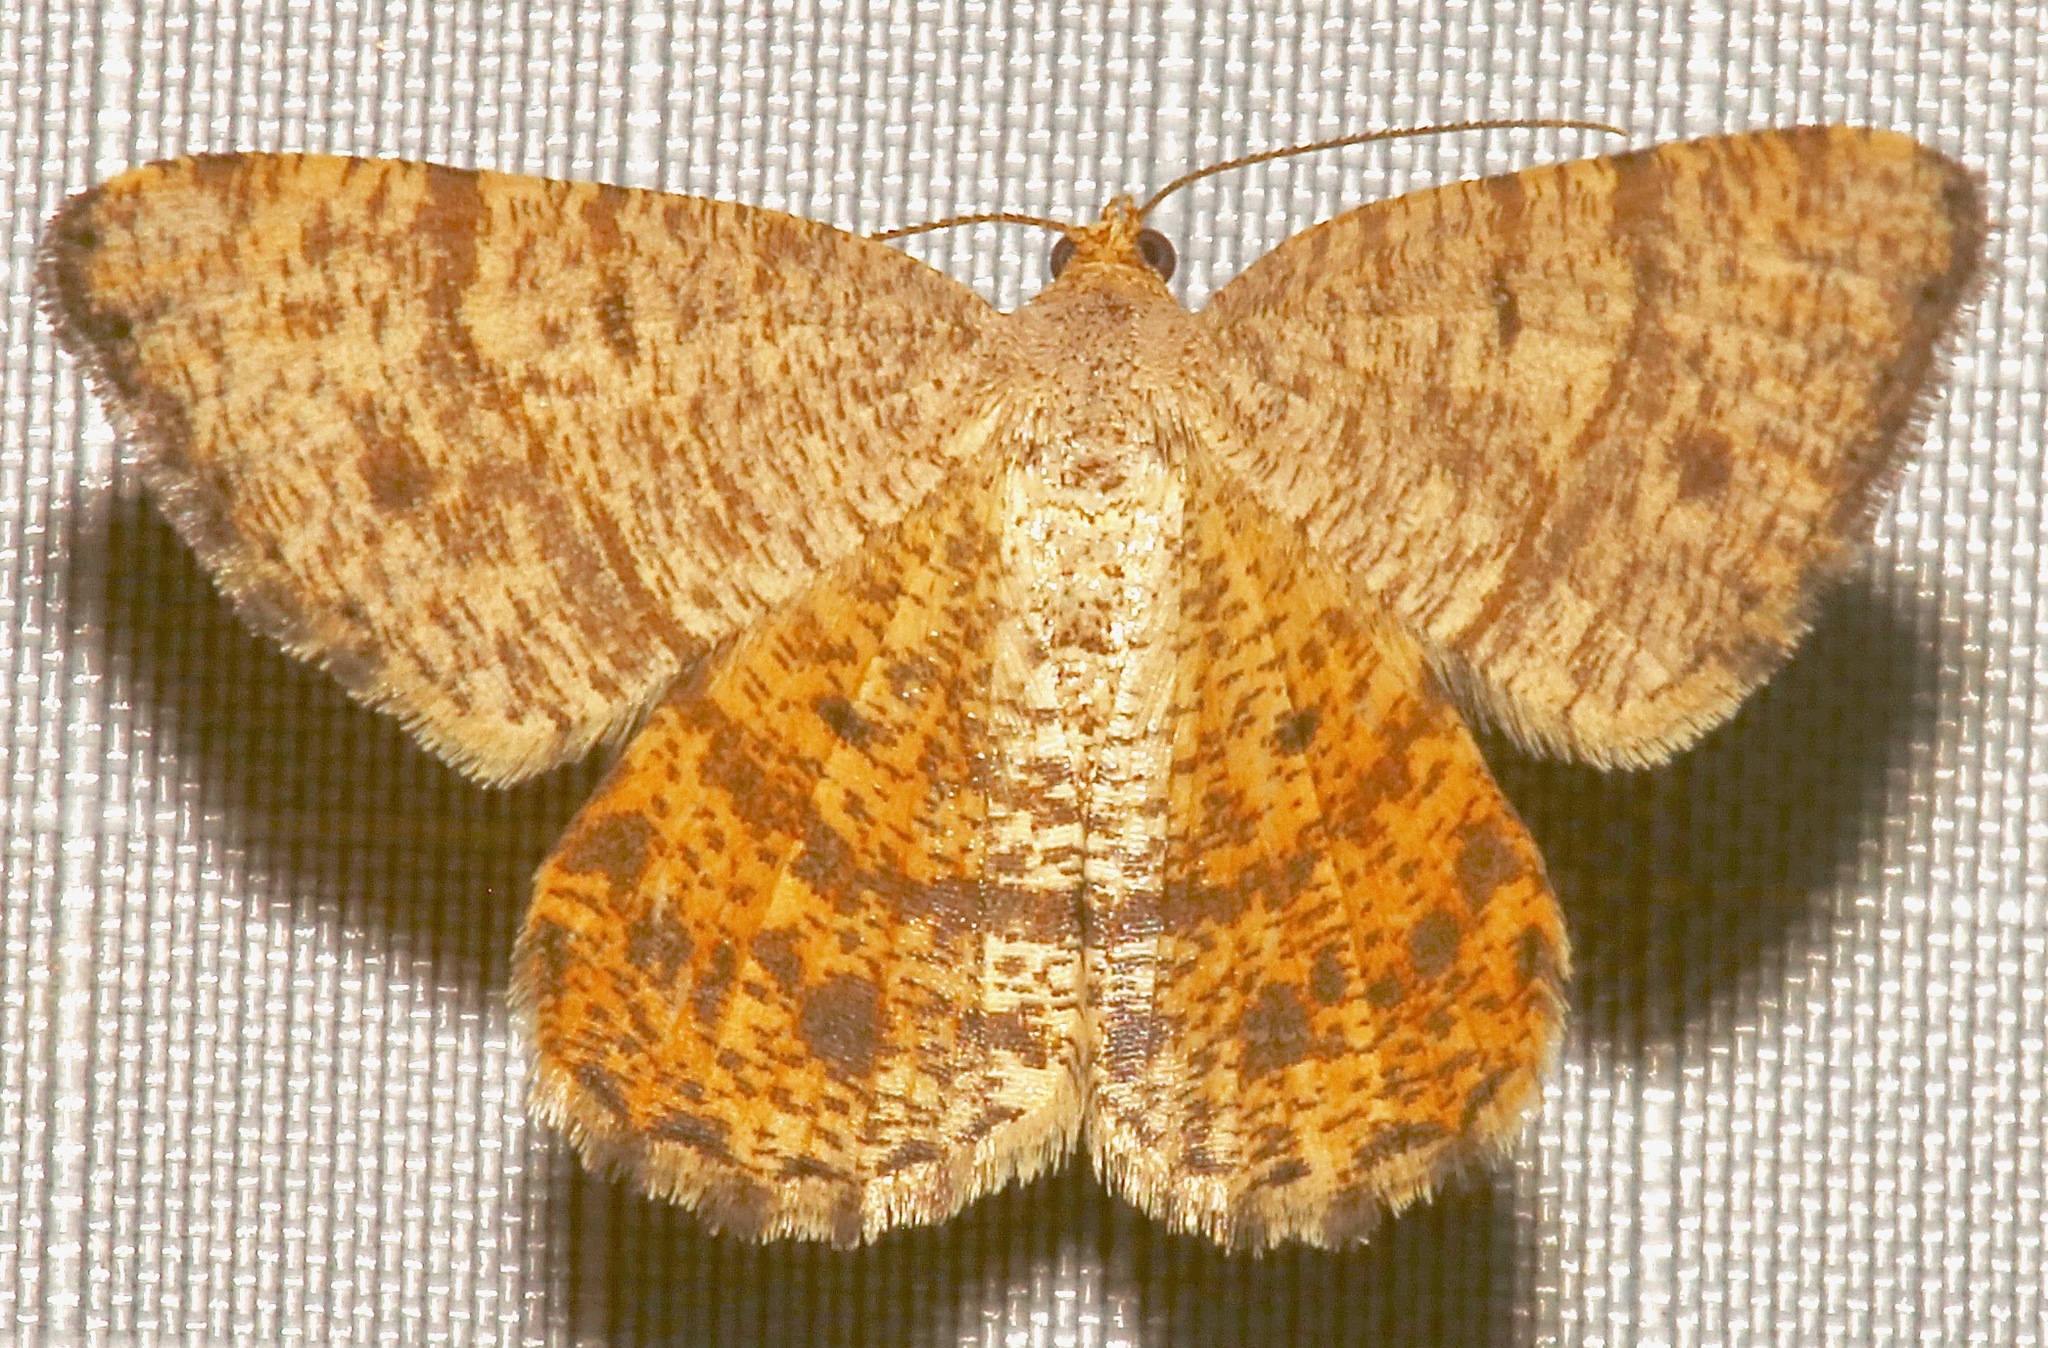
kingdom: Animalia
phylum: Arthropoda
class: Insecta
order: Lepidoptera
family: Geometridae
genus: Macaria
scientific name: Macaria inextricata
